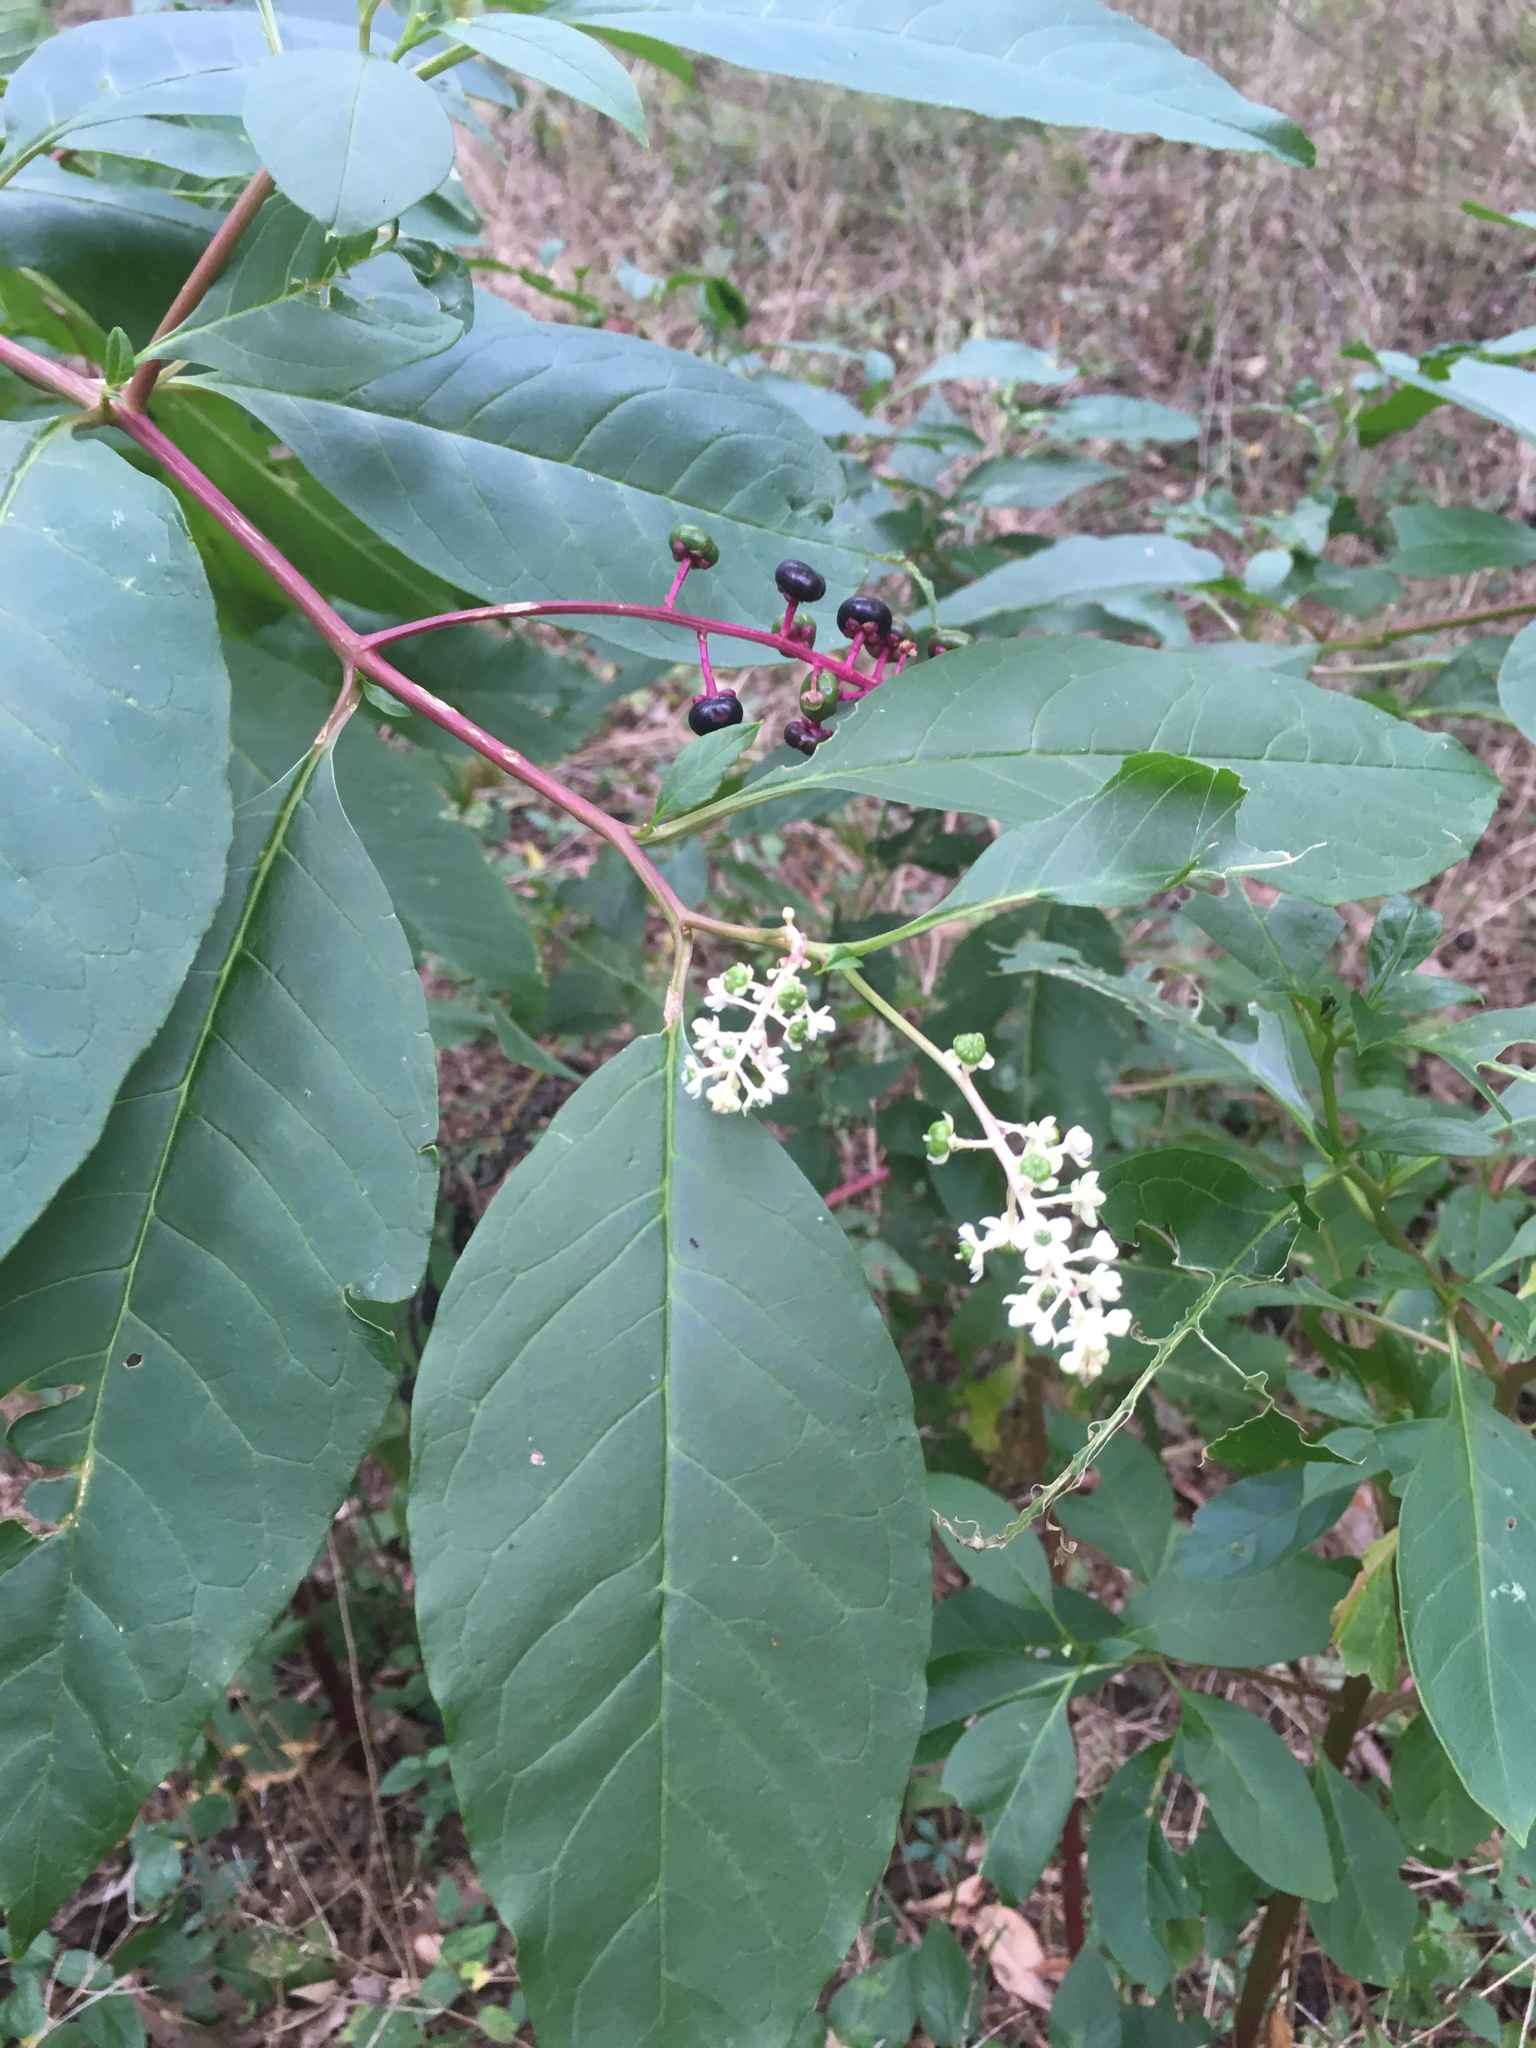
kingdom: Plantae
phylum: Tracheophyta
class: Magnoliopsida
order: Caryophyllales
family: Phytolaccaceae
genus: Phytolacca
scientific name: Phytolacca americana
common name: American pokeweed
